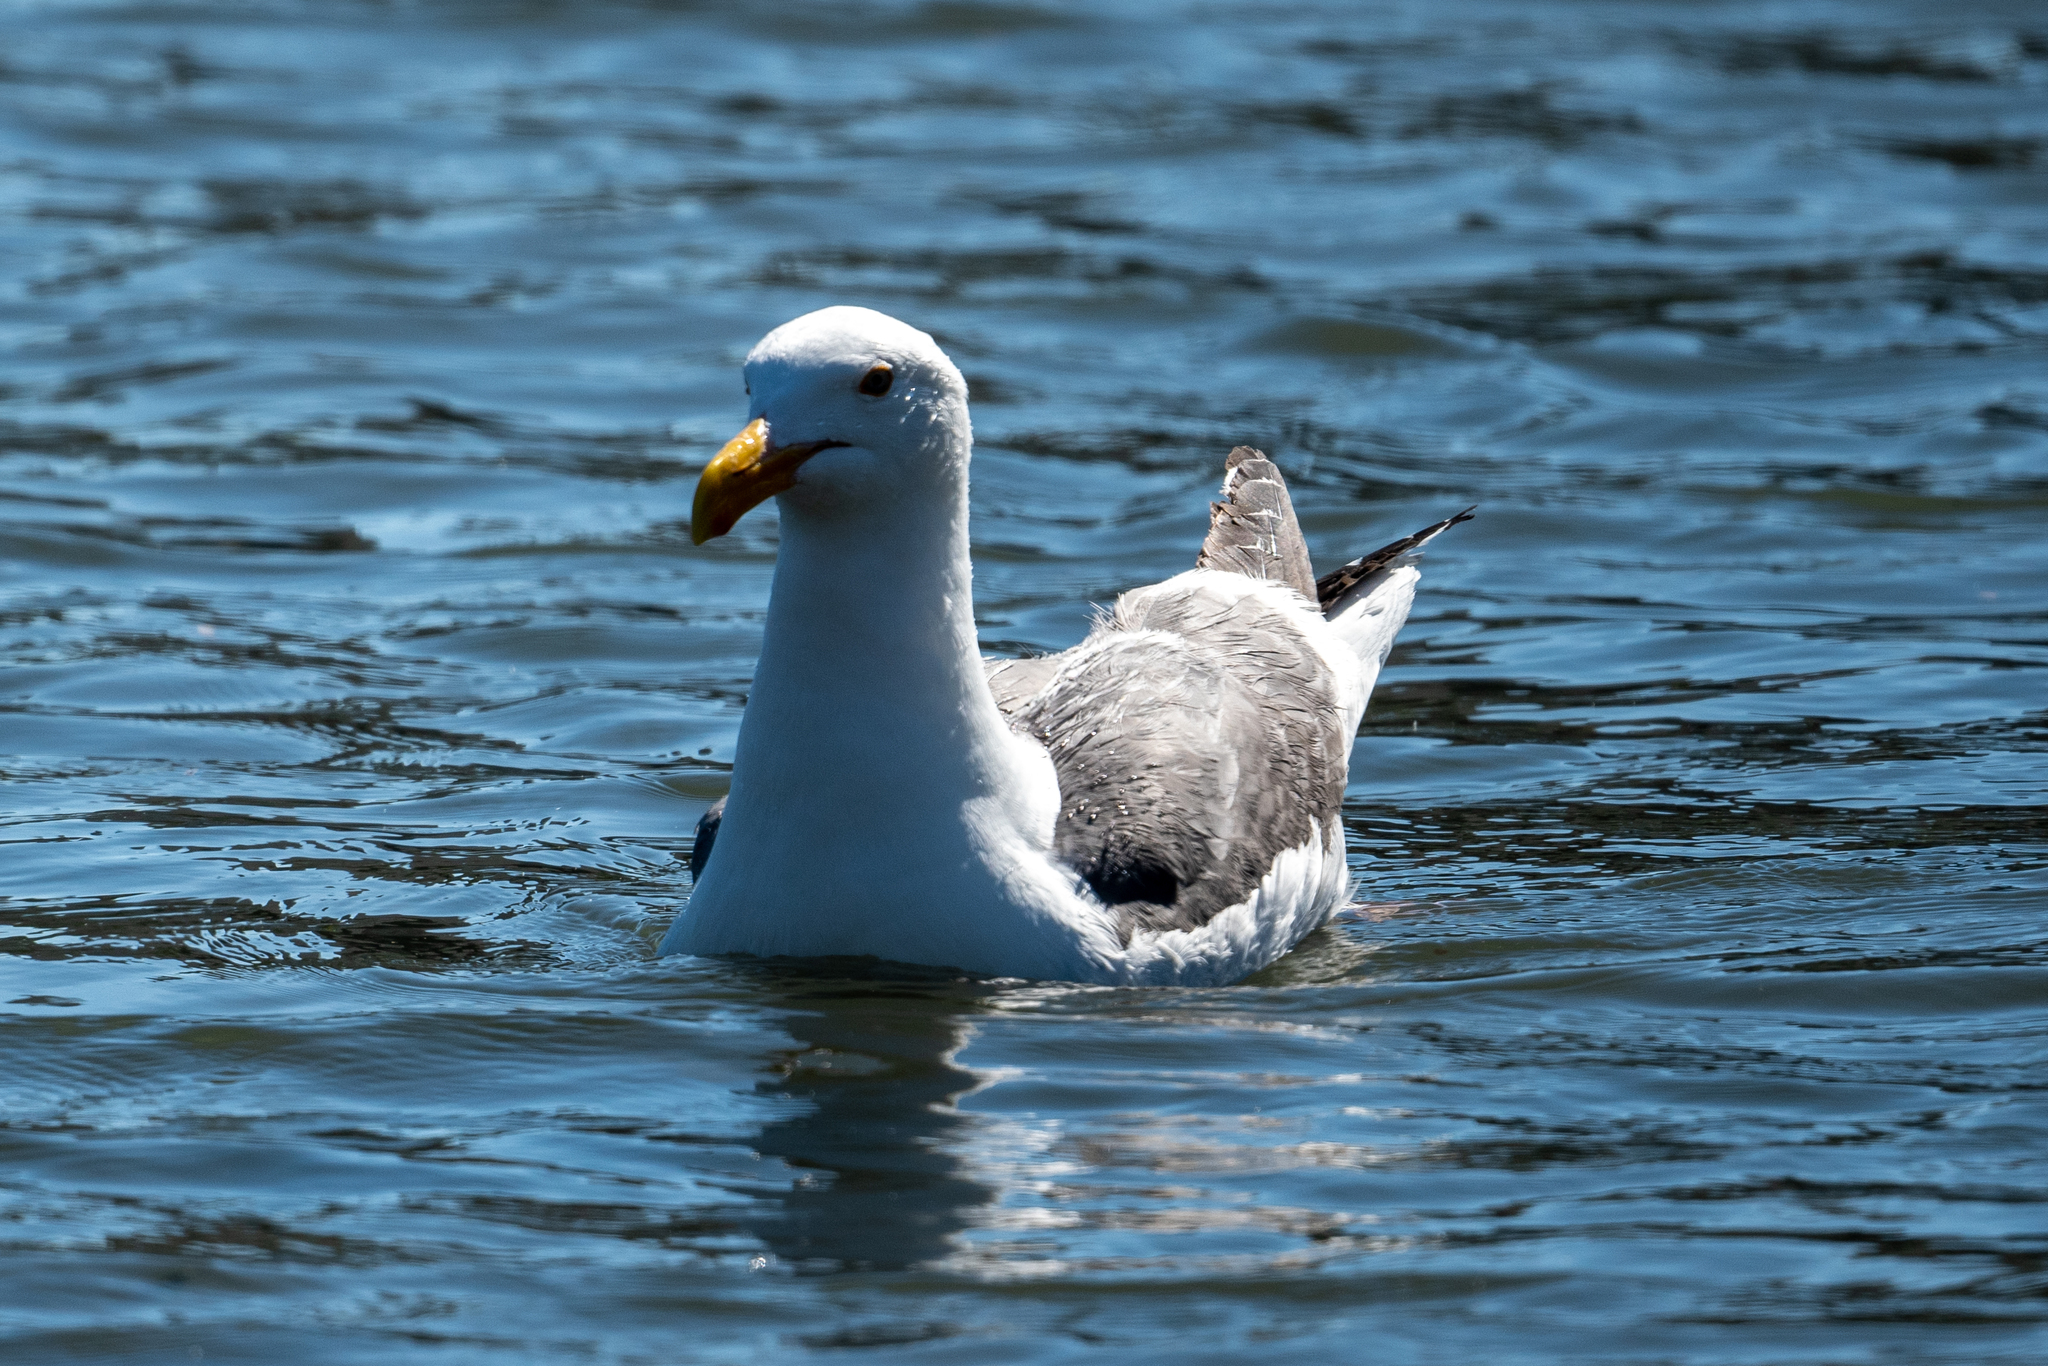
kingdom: Animalia
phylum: Chordata
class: Aves
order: Charadriiformes
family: Laridae
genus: Larus
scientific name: Larus occidentalis
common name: Western gull
